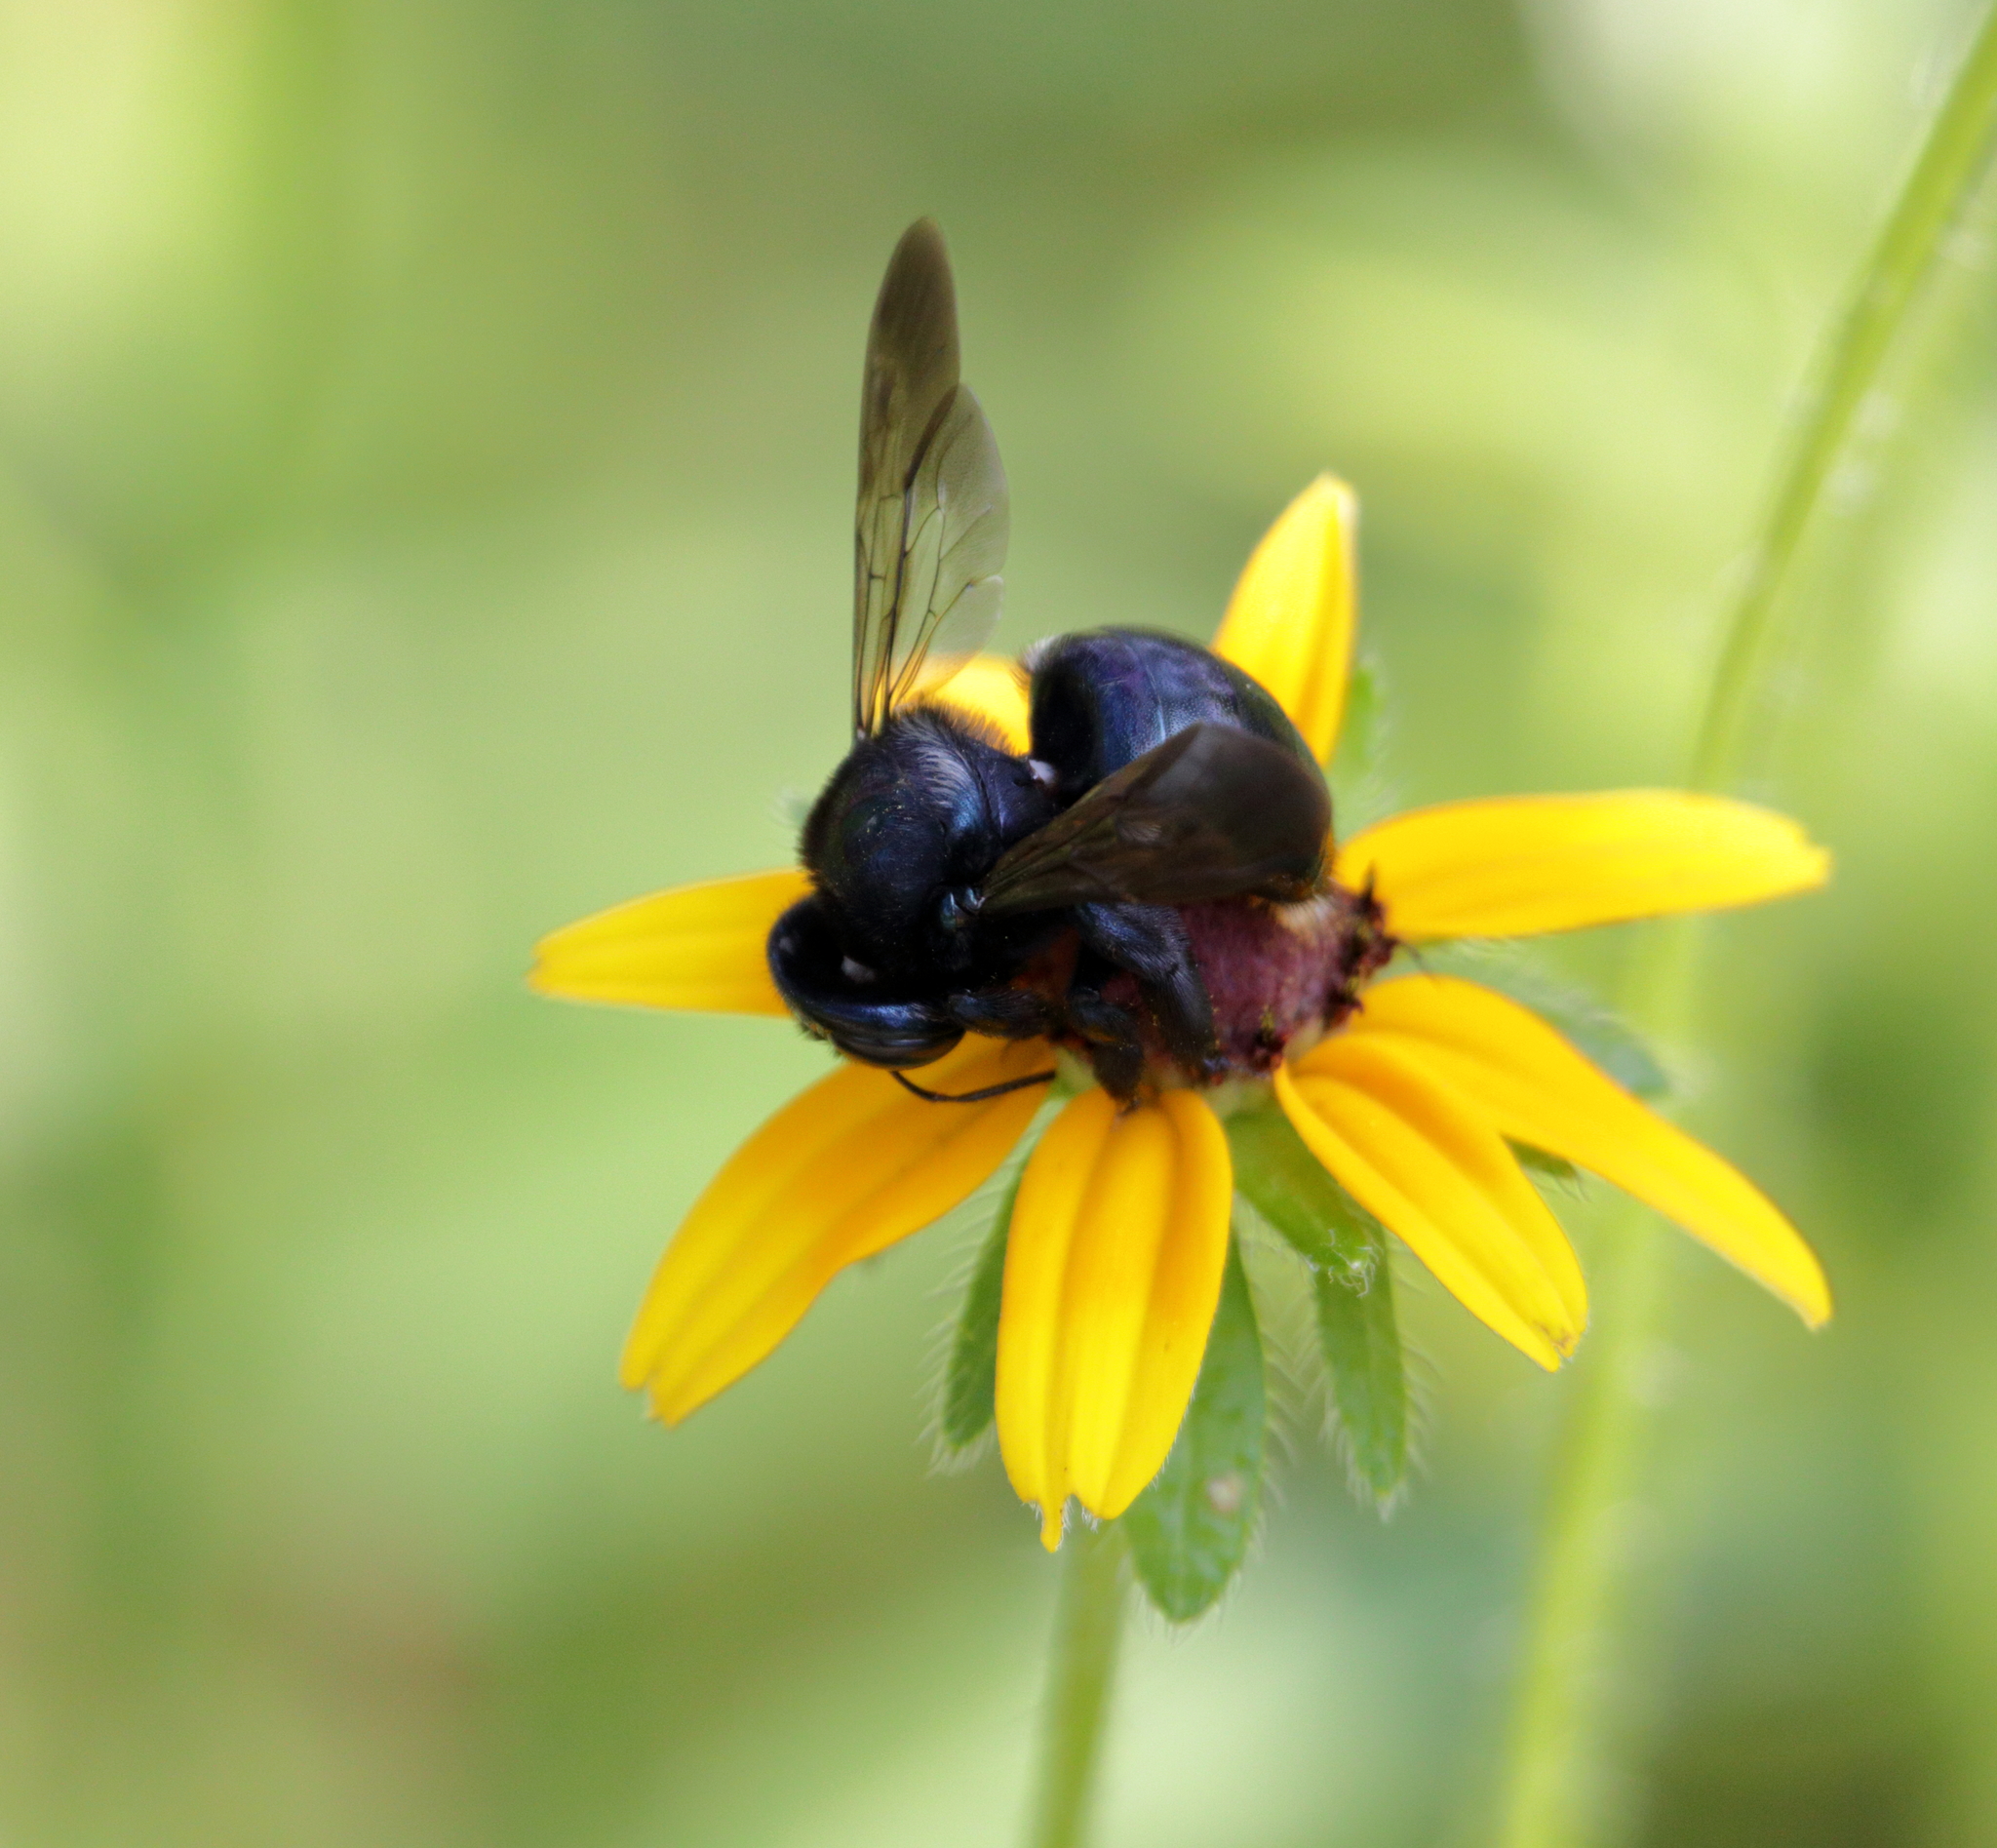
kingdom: Animalia
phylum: Arthropoda
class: Insecta
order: Hymenoptera
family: Apidae
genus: Xylocopa
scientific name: Xylocopa micans
